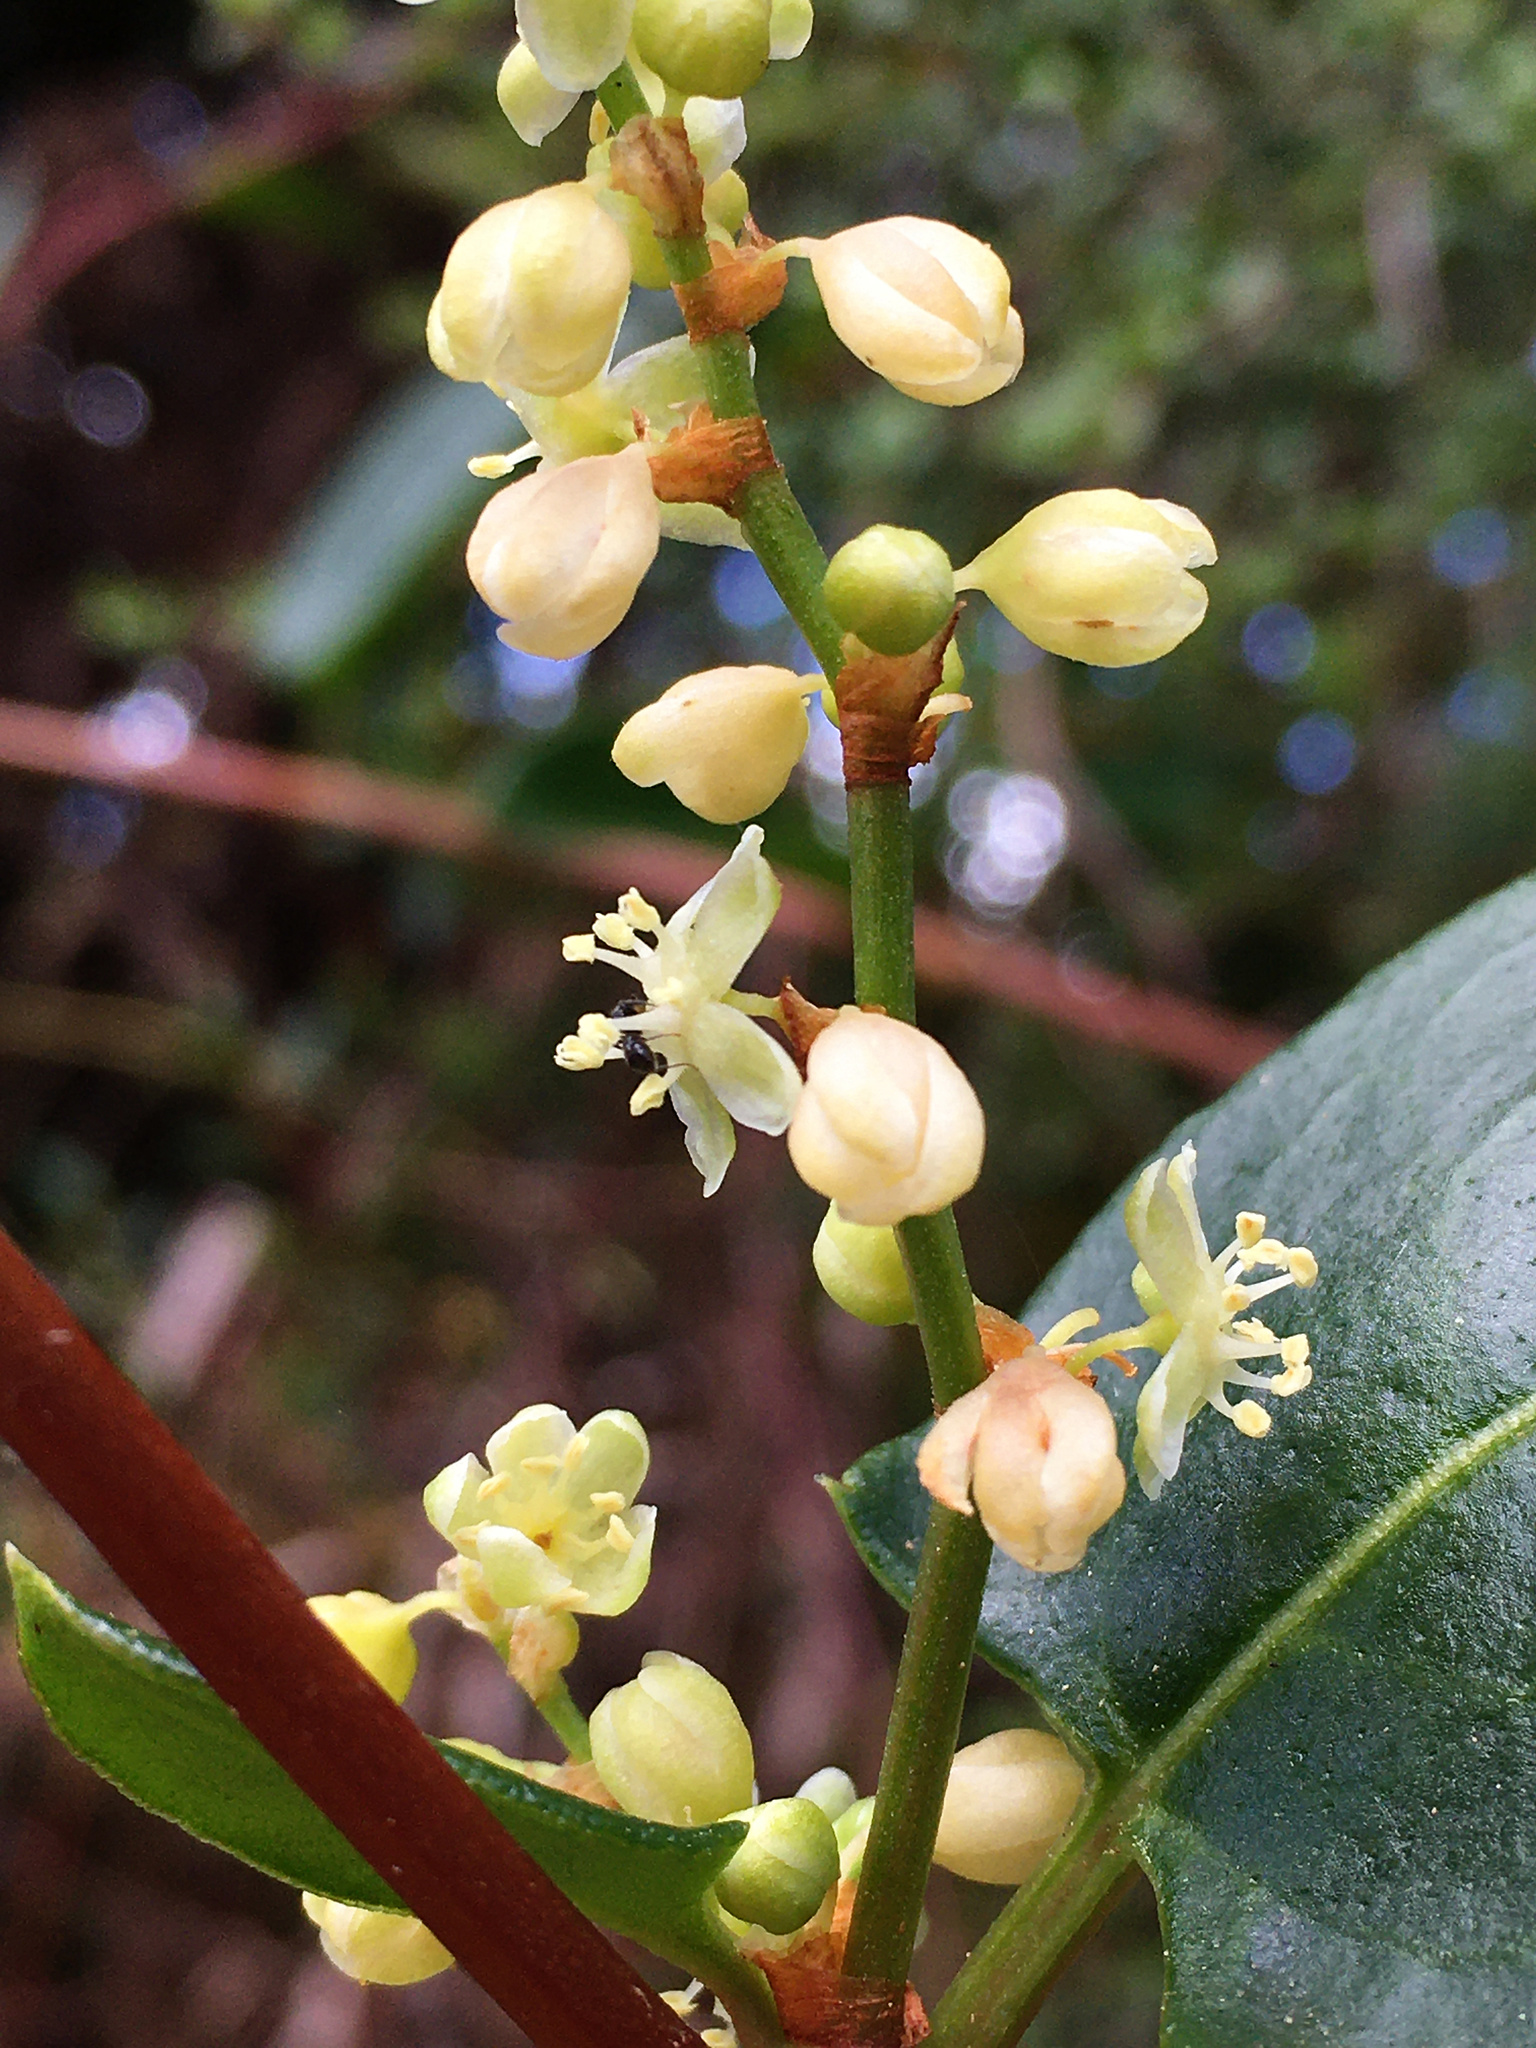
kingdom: Plantae
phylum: Tracheophyta
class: Magnoliopsida
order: Caryophyllales
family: Polygonaceae
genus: Muehlenbeckia
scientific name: Muehlenbeckia gunnii
